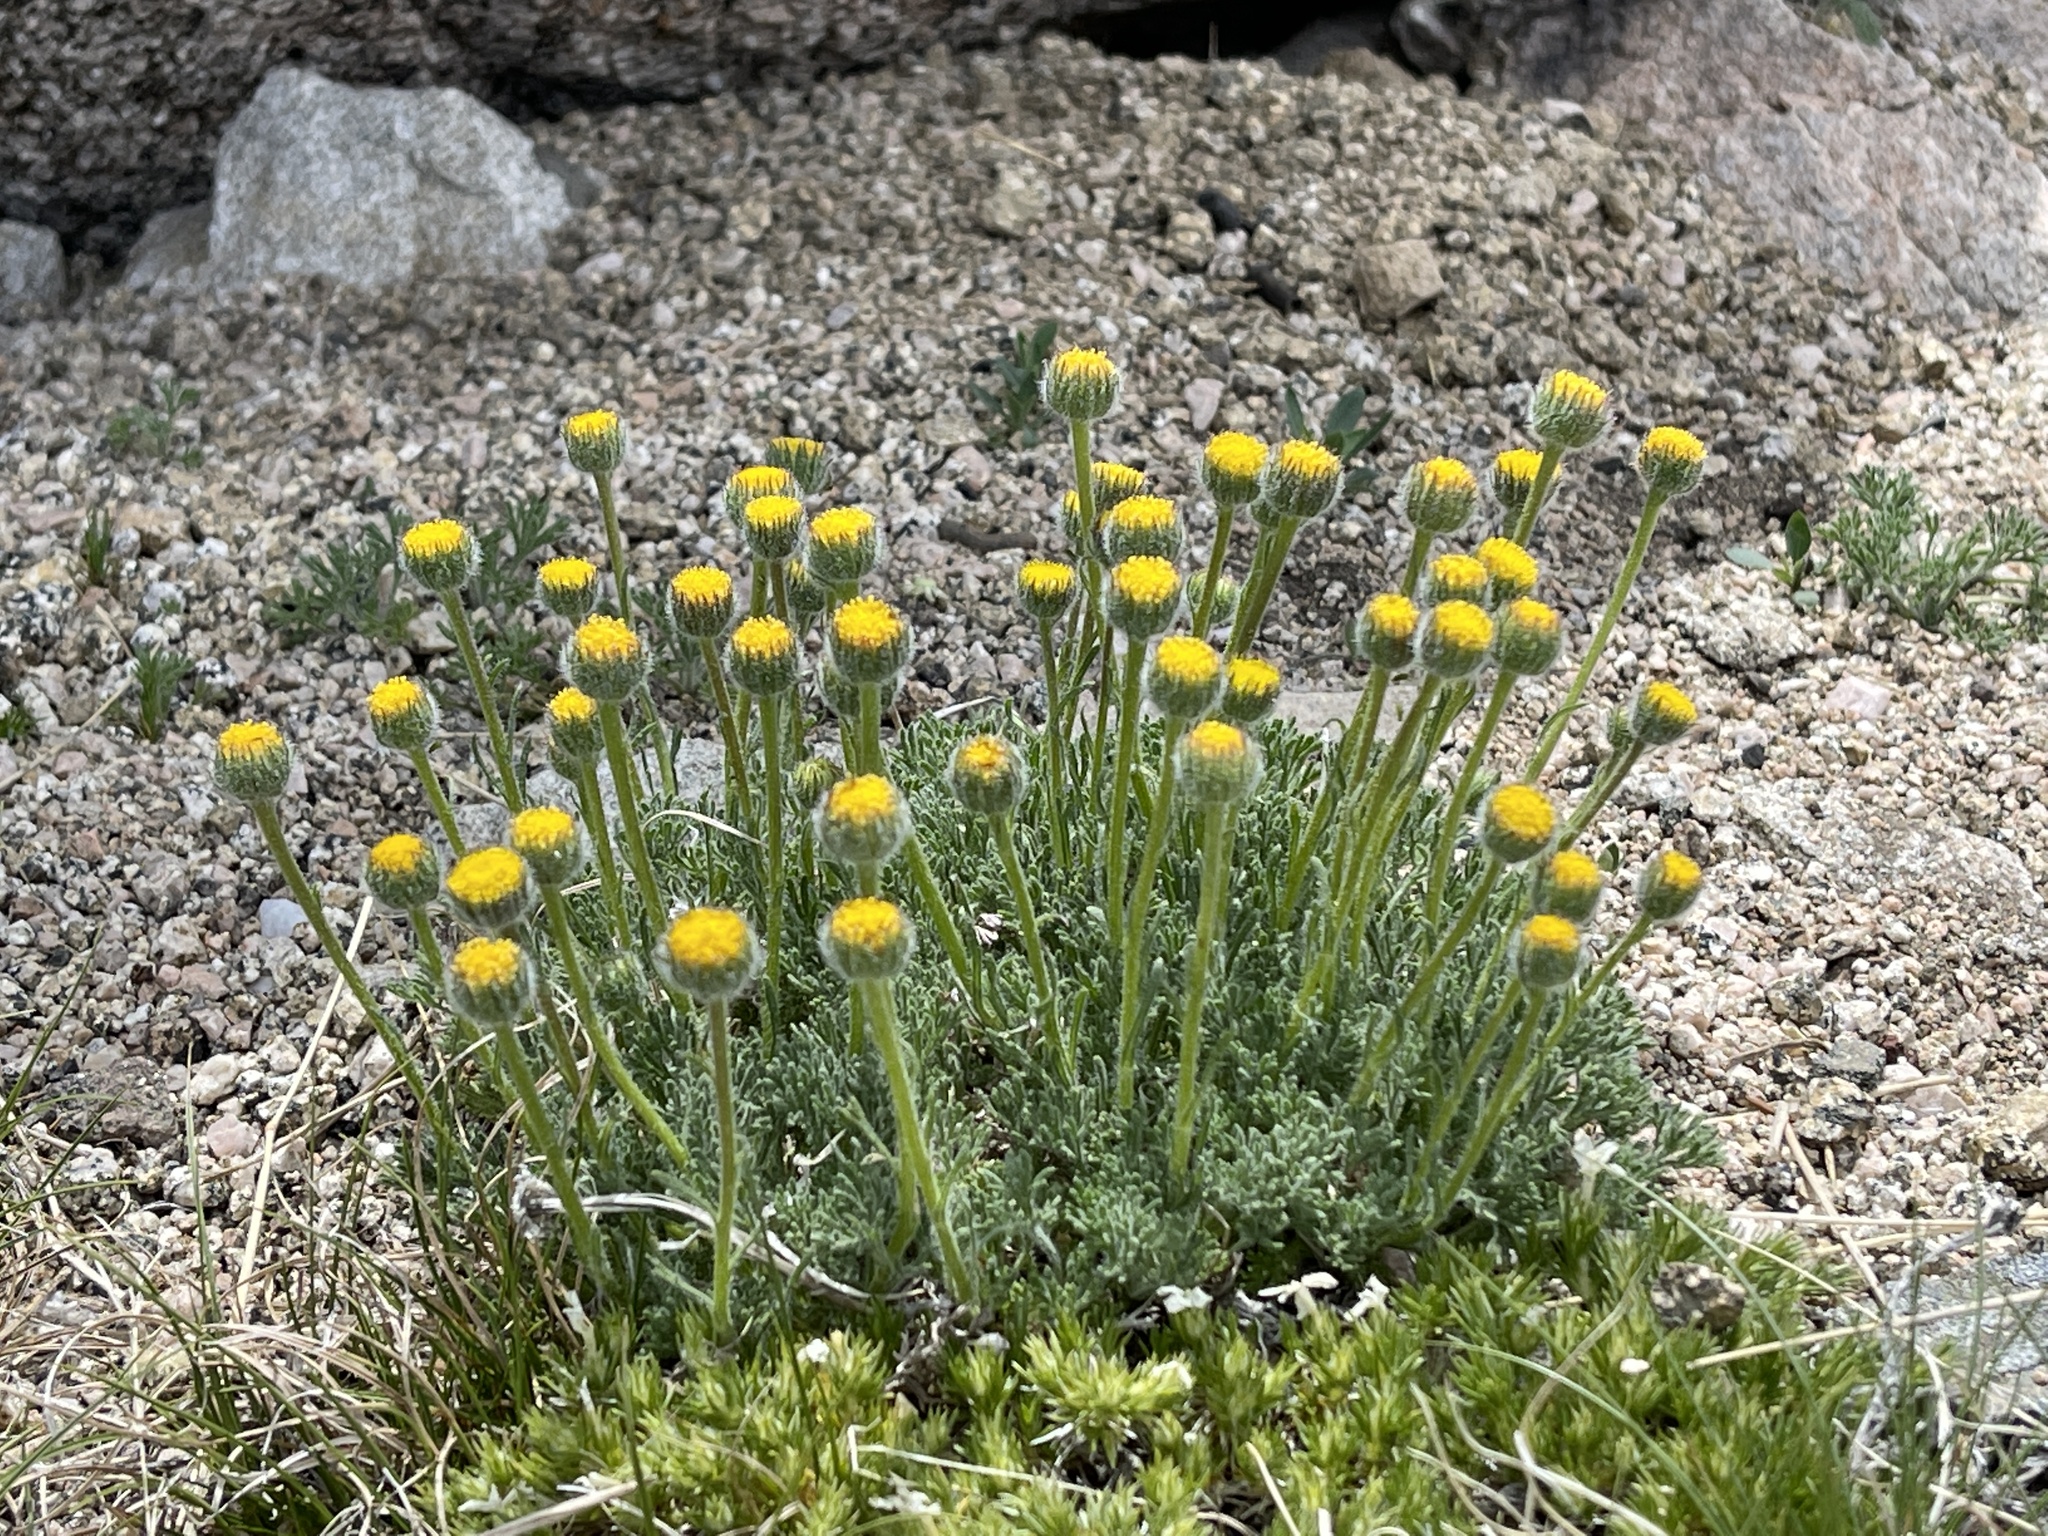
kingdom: Plantae
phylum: Tracheophyta
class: Magnoliopsida
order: Asterales
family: Asteraceae
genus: Erigeron
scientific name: Erigeron compositus
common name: Dwarf mountain fleabane
